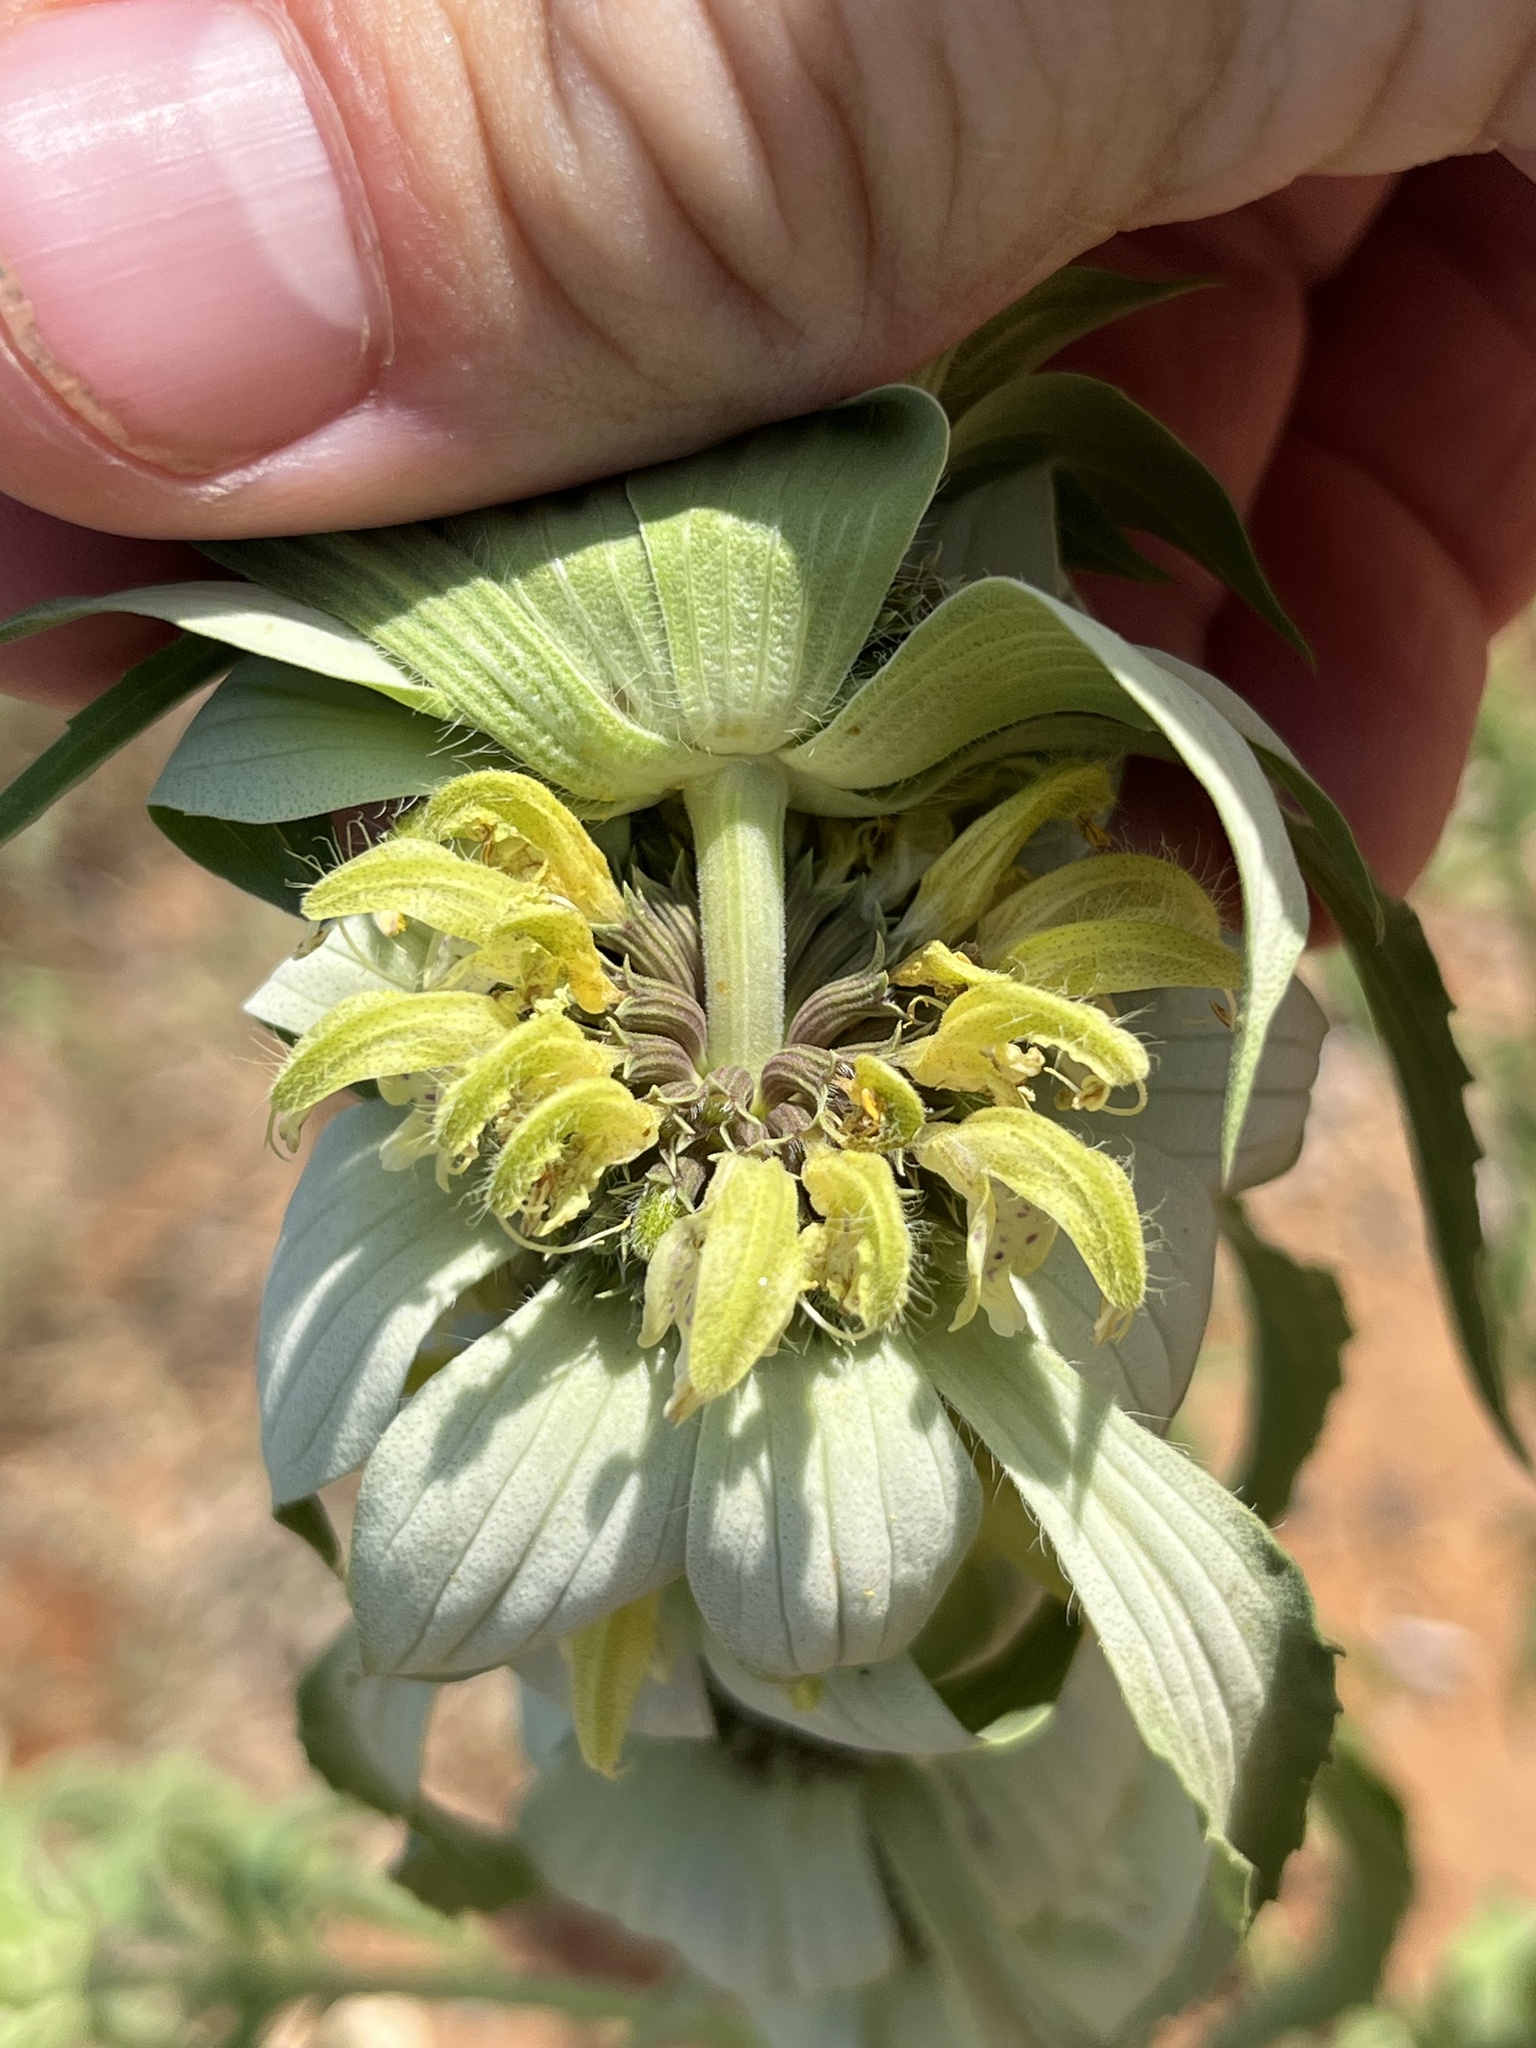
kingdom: Plantae
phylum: Tracheophyta
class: Magnoliopsida
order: Lamiales
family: Lamiaceae
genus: Monarda
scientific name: Monarda punctata
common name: Dotted monarda
